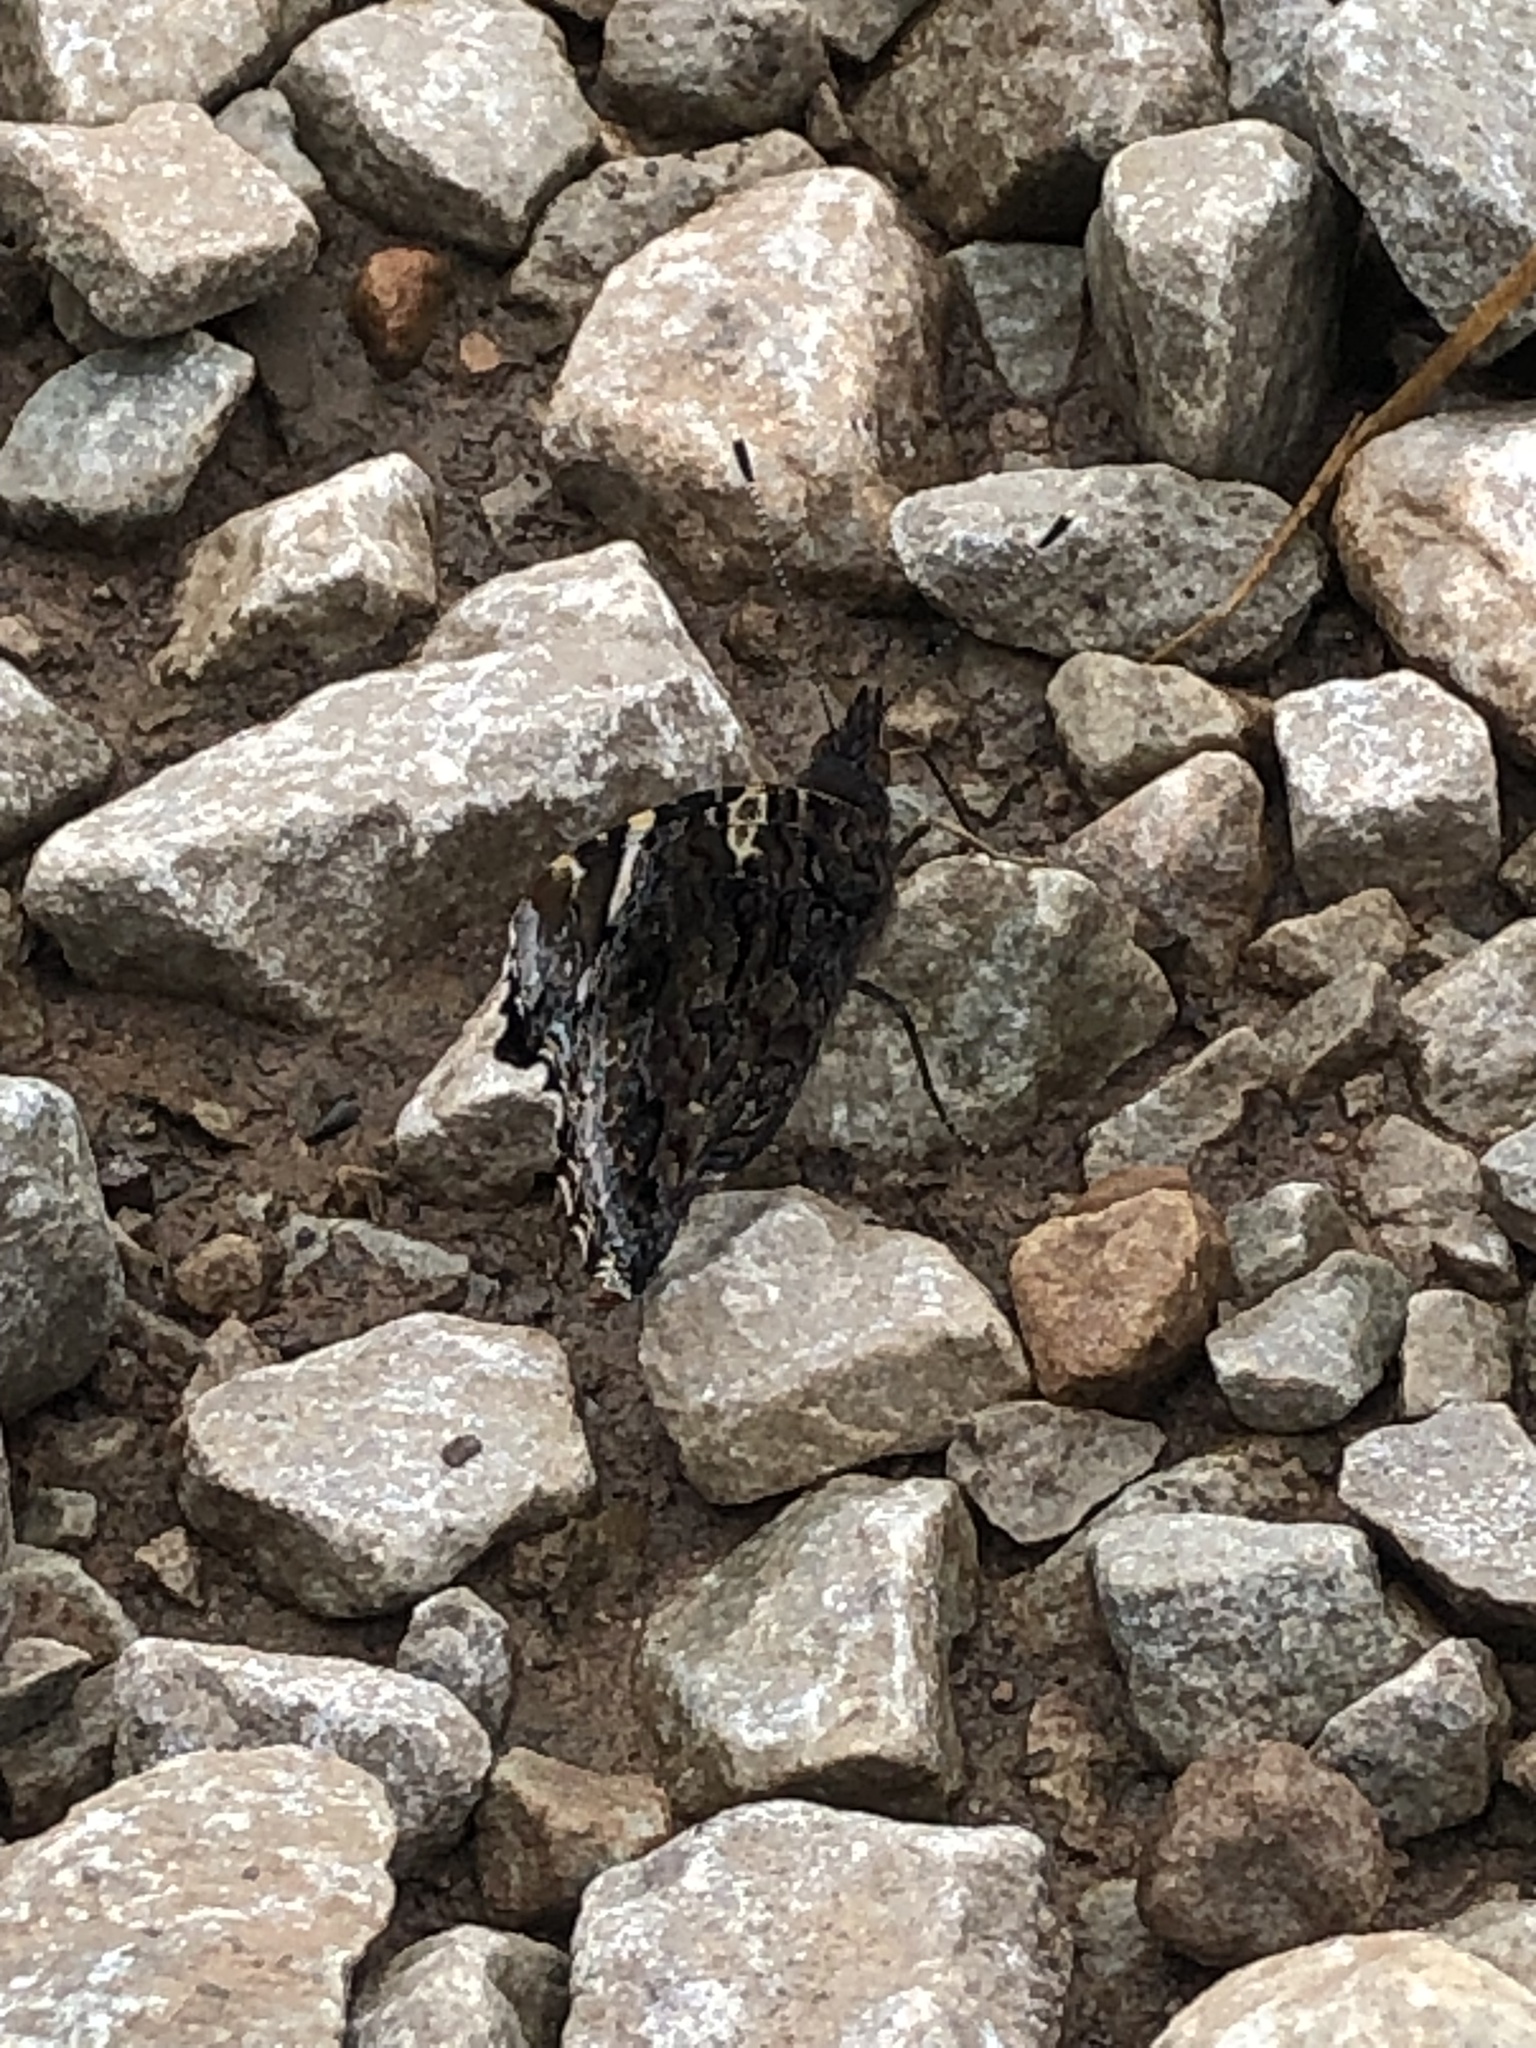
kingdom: Animalia
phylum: Arthropoda
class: Insecta
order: Lepidoptera
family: Nymphalidae
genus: Vanessa
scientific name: Vanessa atalanta
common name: Red admiral
